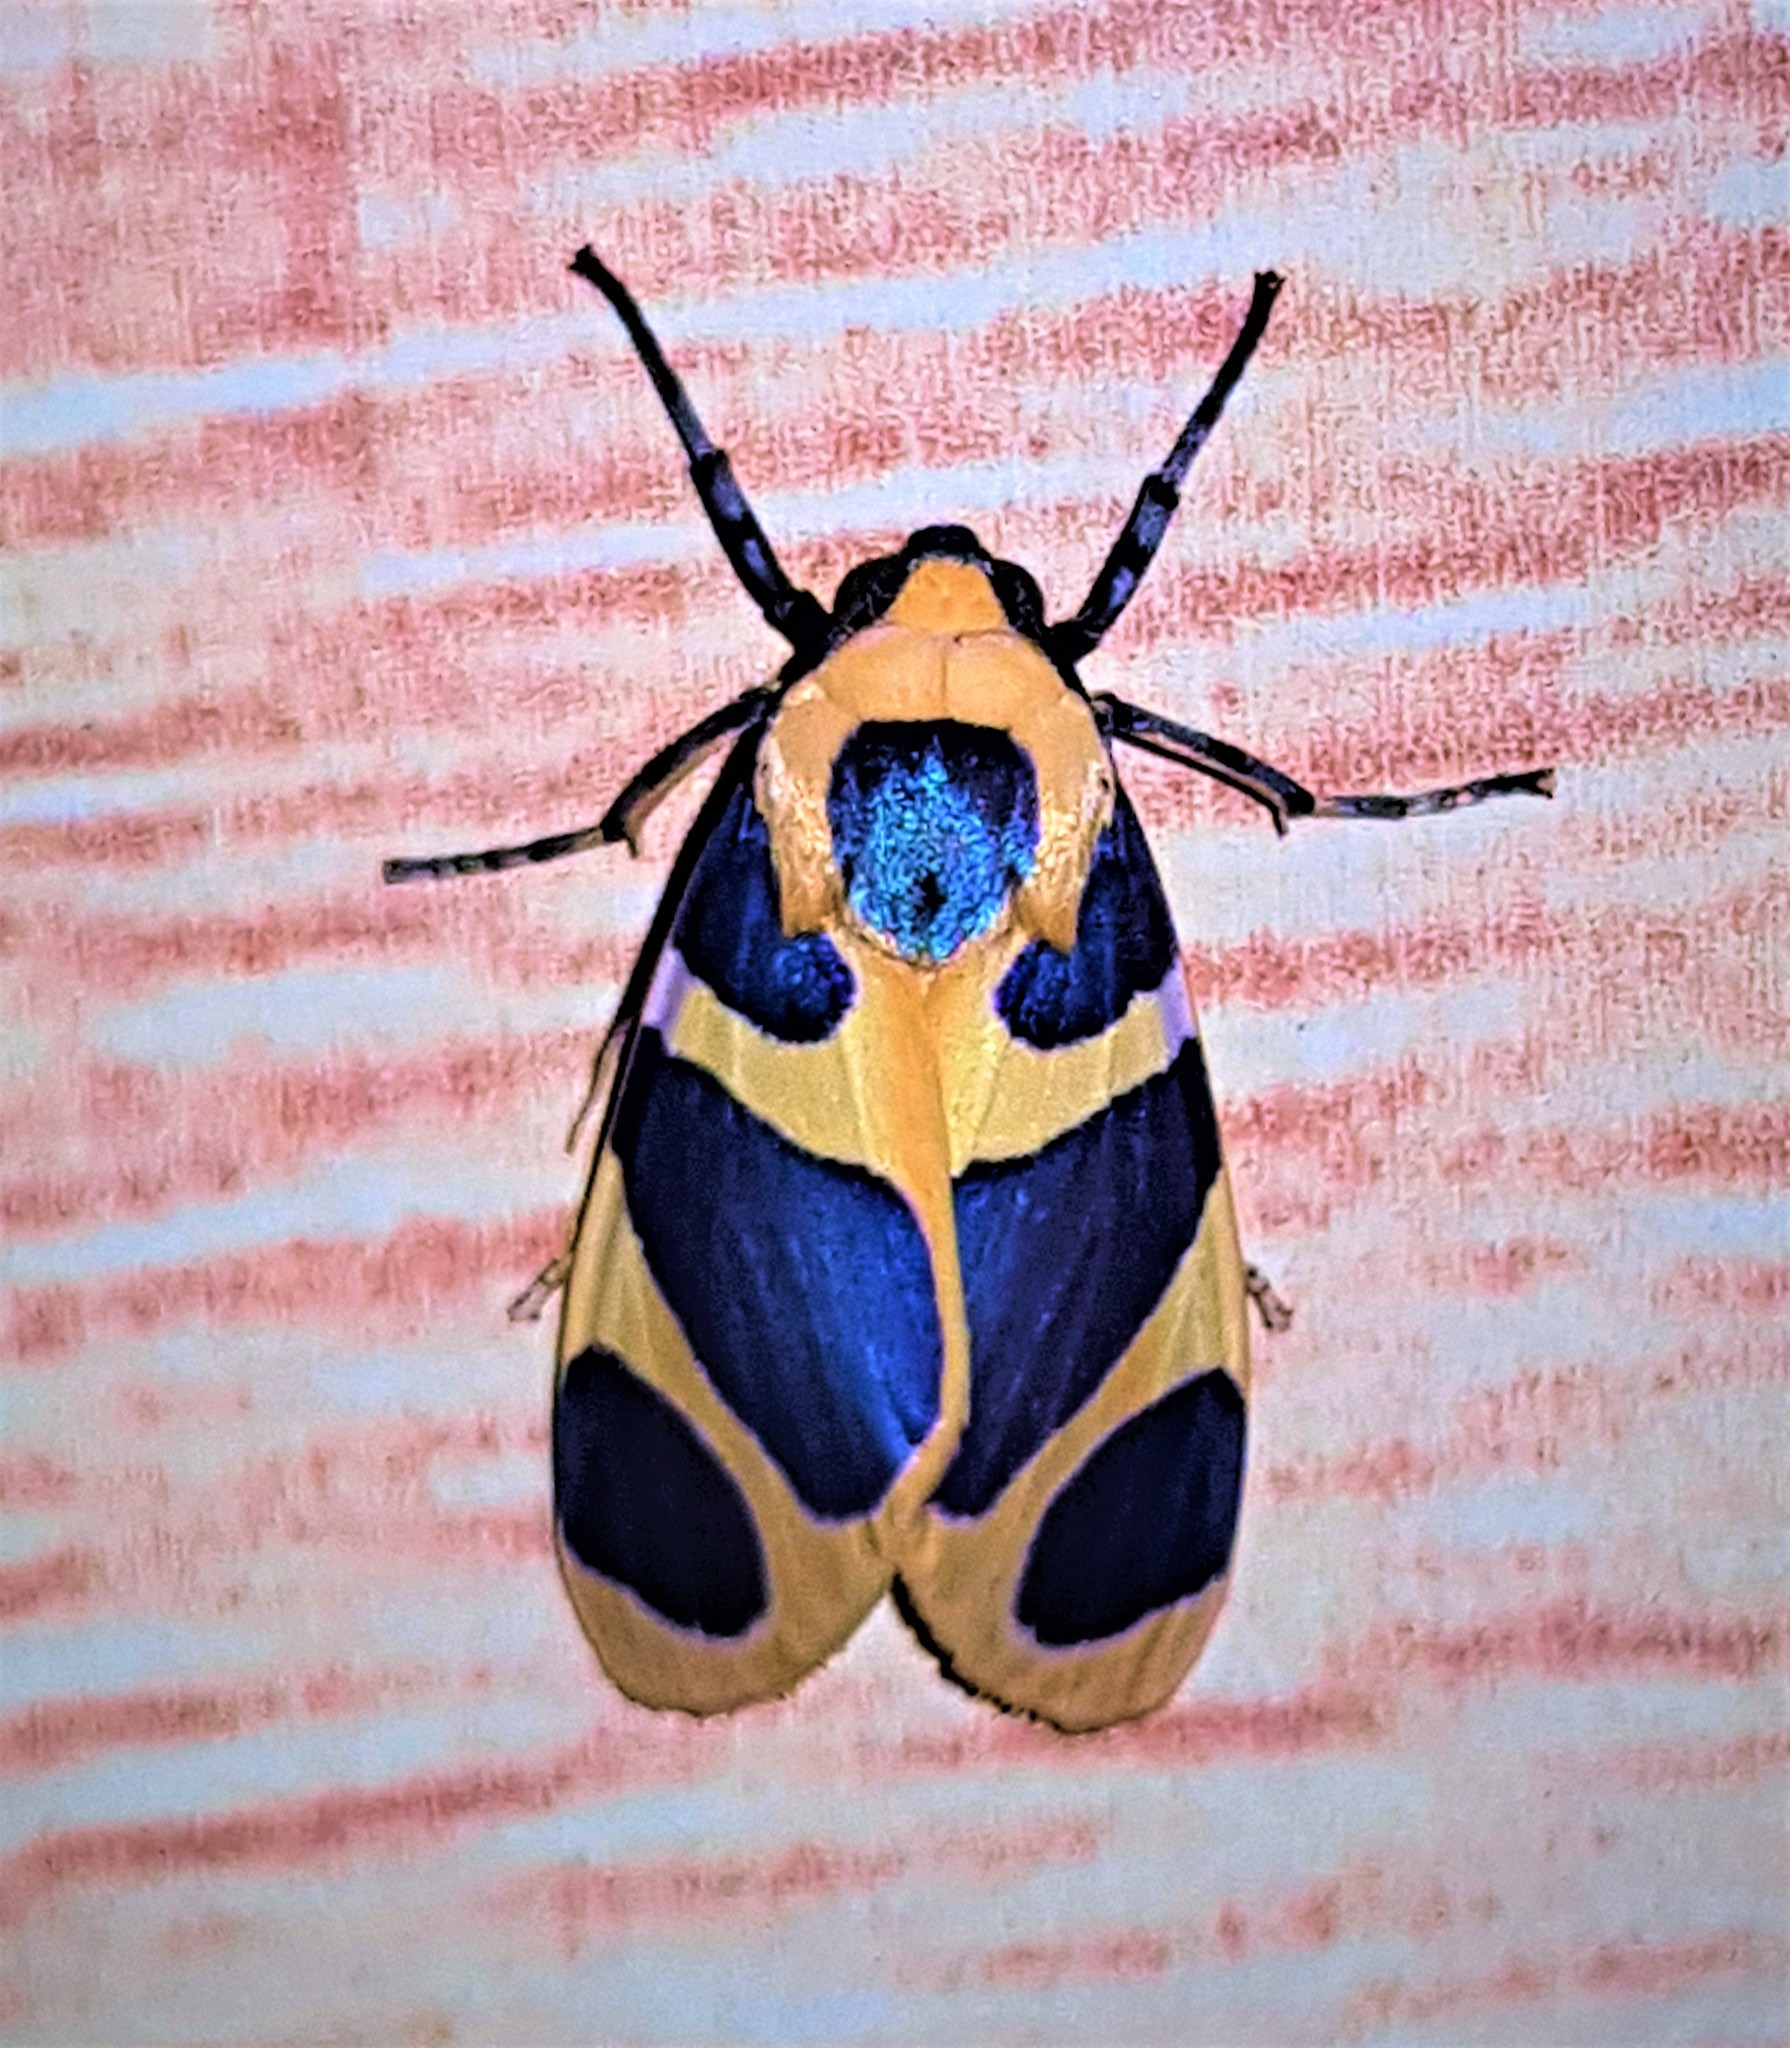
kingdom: Animalia
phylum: Arthropoda
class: Insecta
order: Lepidoptera
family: Erebidae
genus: Emurena
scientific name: Emurena fernandezi
